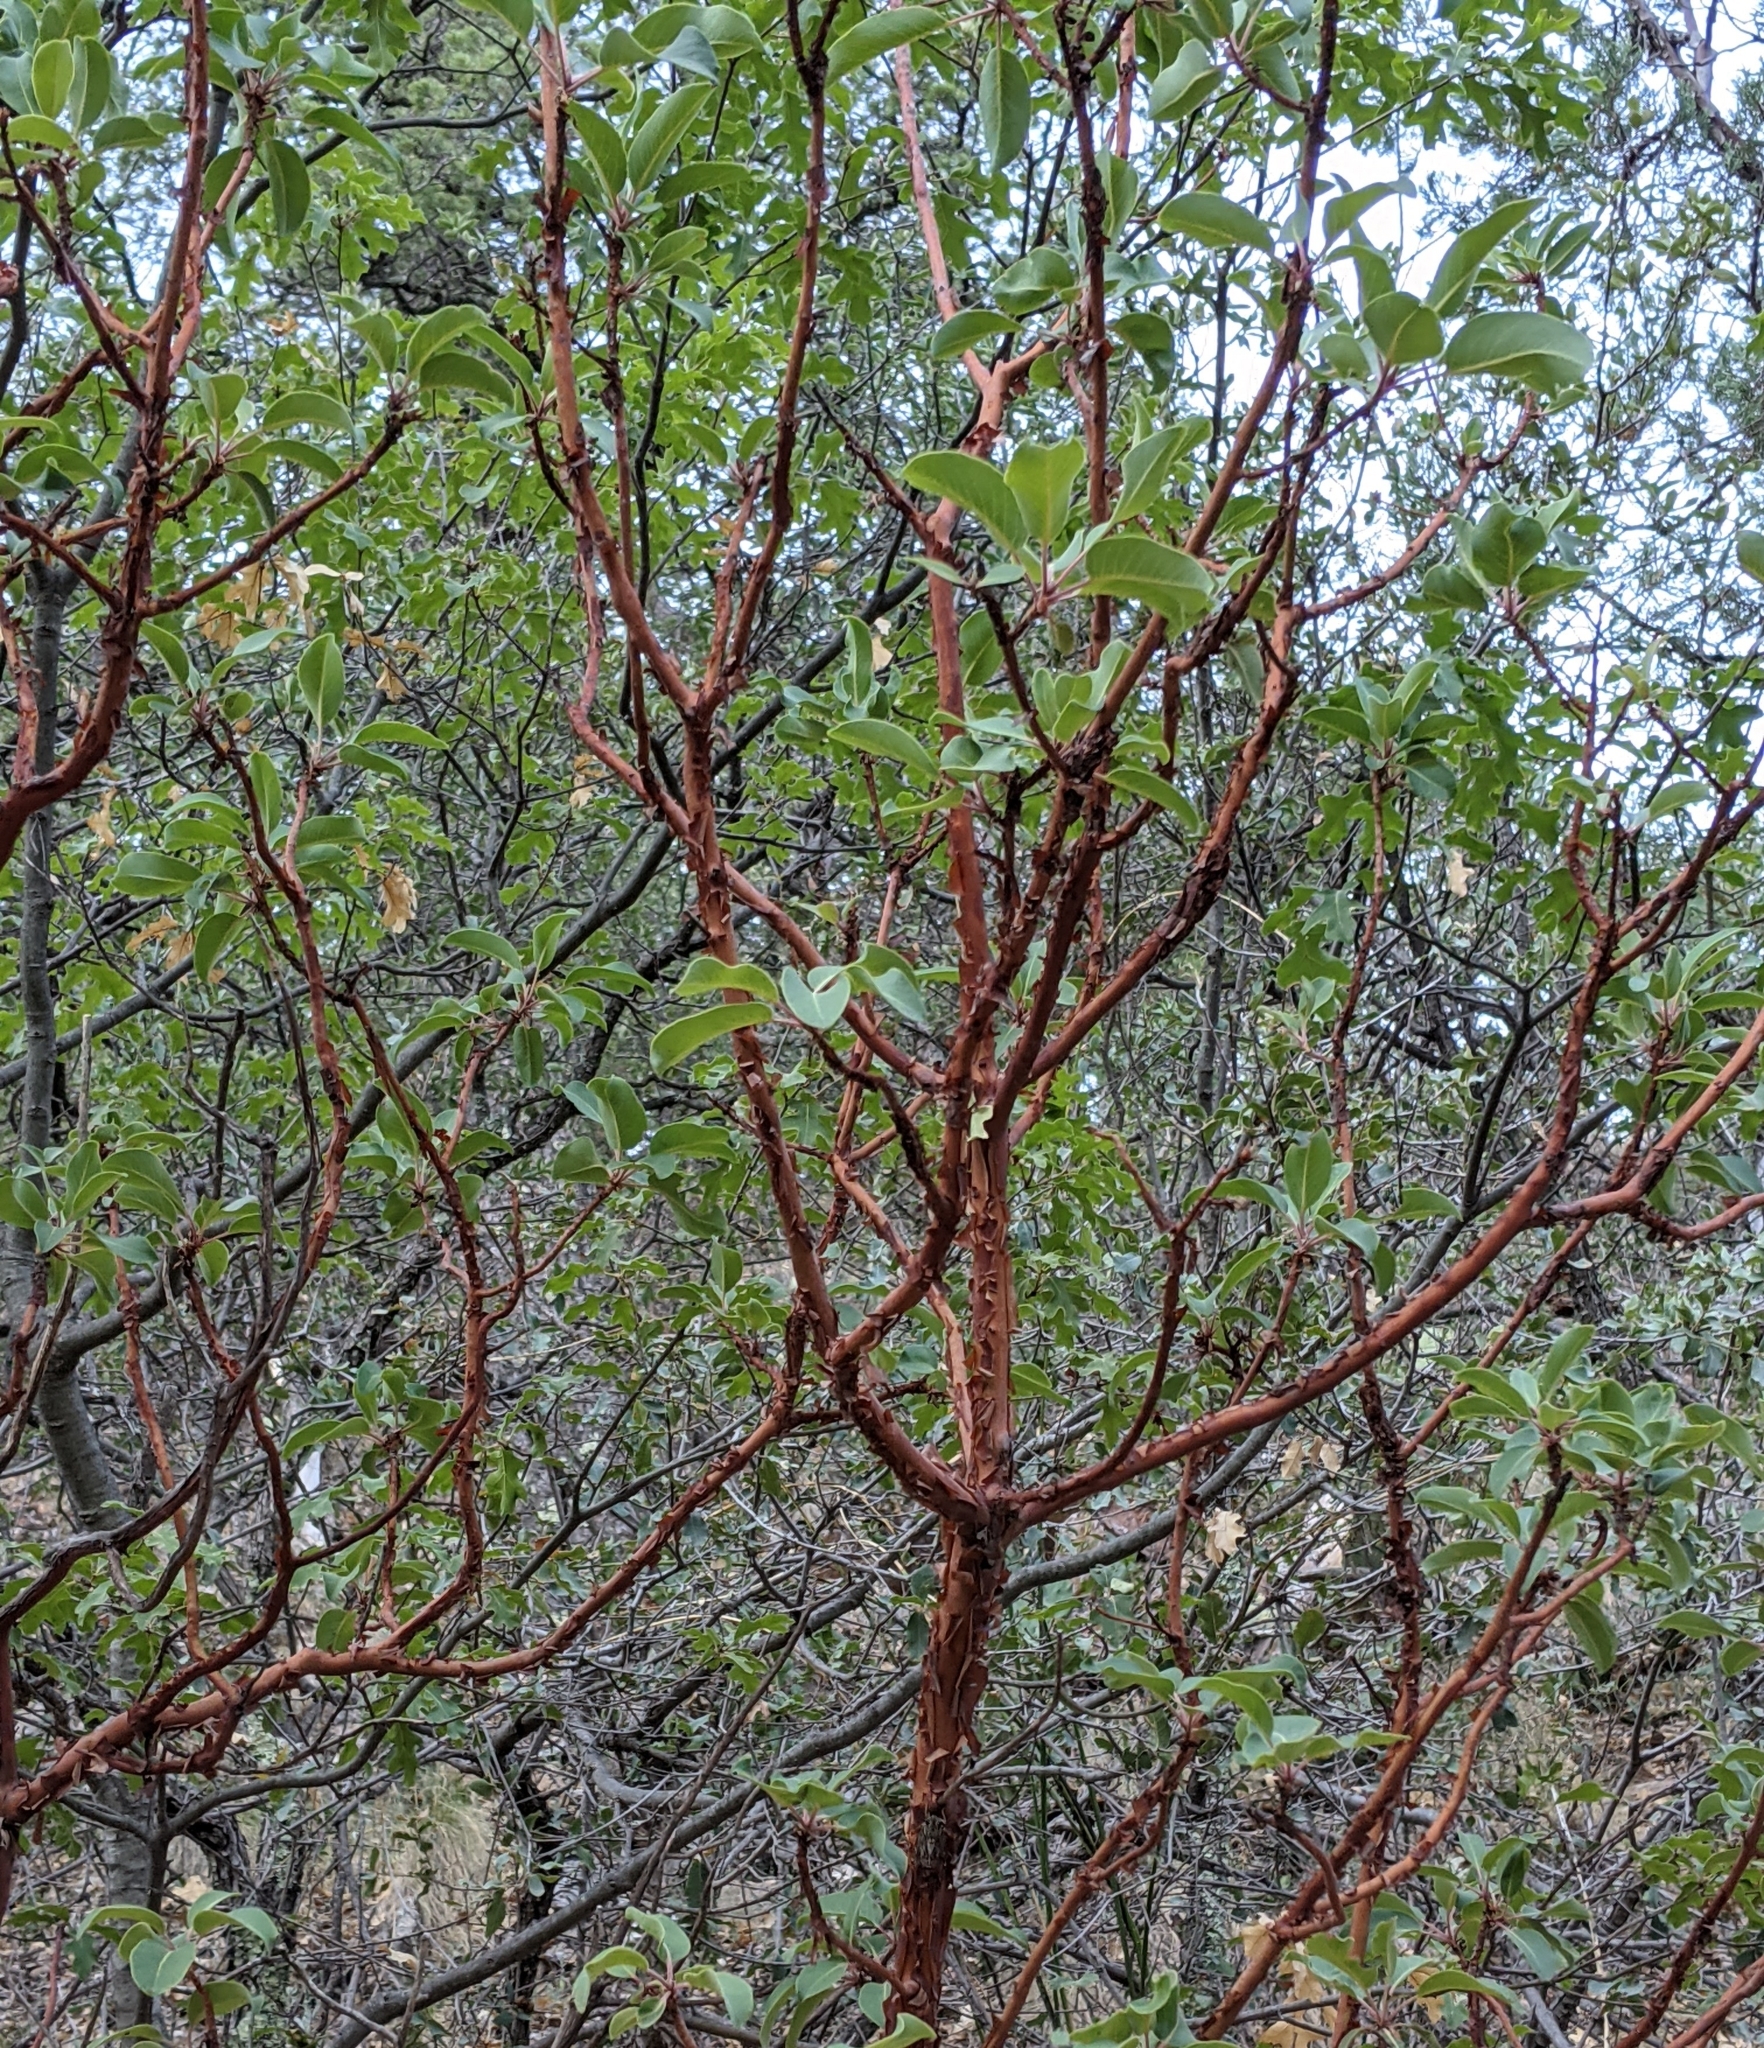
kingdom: Plantae
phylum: Tracheophyta
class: Magnoliopsida
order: Ericales
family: Ericaceae
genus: Arbutus
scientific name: Arbutus xalapensis
